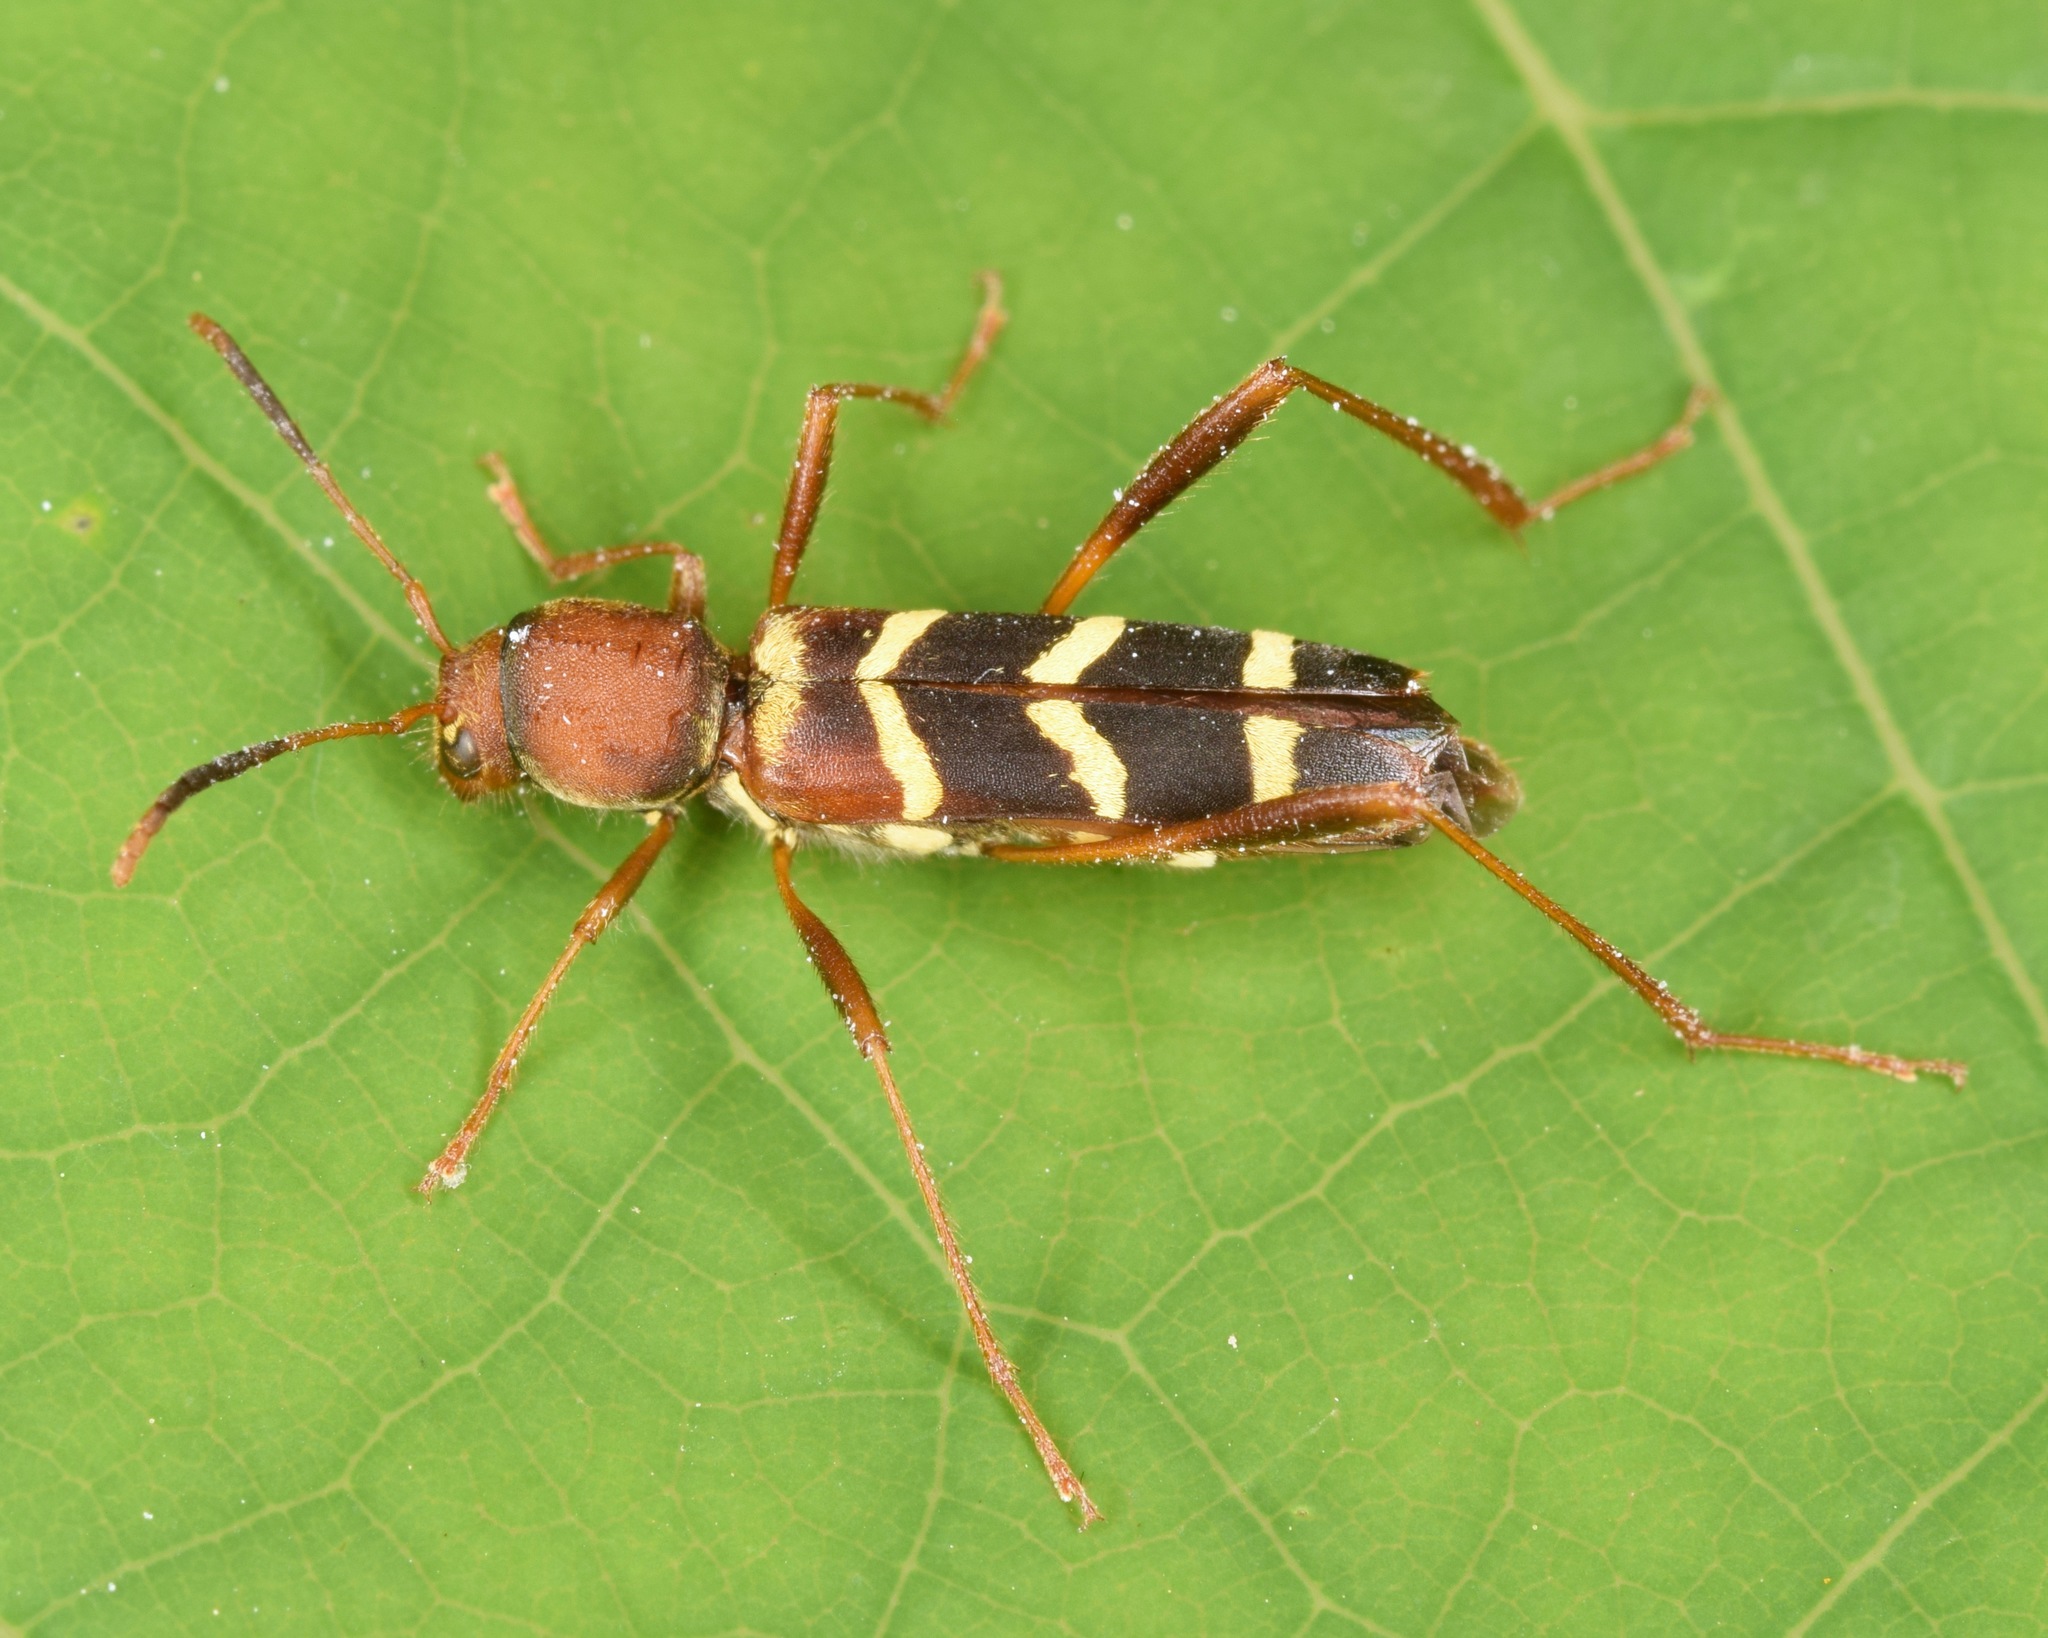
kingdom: Animalia
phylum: Arthropoda
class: Insecta
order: Coleoptera
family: Cerambycidae
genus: Neoclytus
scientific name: Neoclytus acuminatus
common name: Read-headed ash borer
